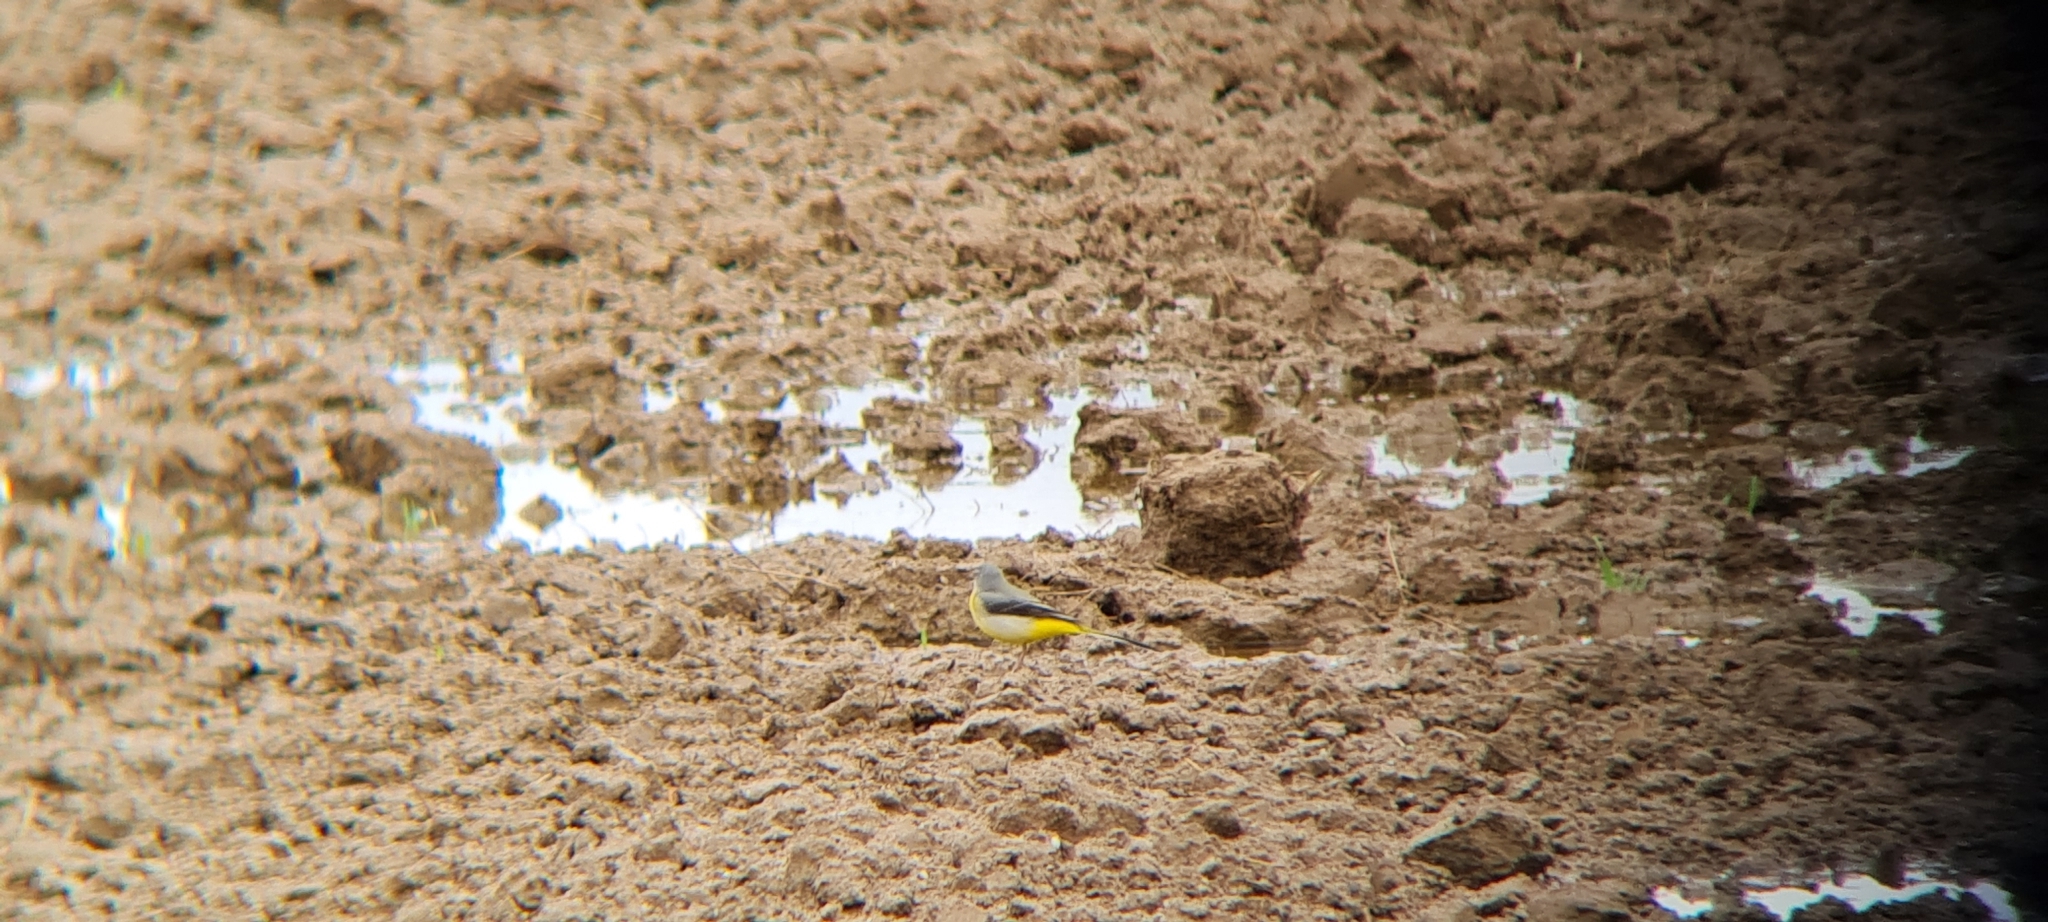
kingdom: Animalia
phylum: Chordata
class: Aves
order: Passeriformes
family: Motacillidae
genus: Motacilla
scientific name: Motacilla cinerea
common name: Grey wagtail
